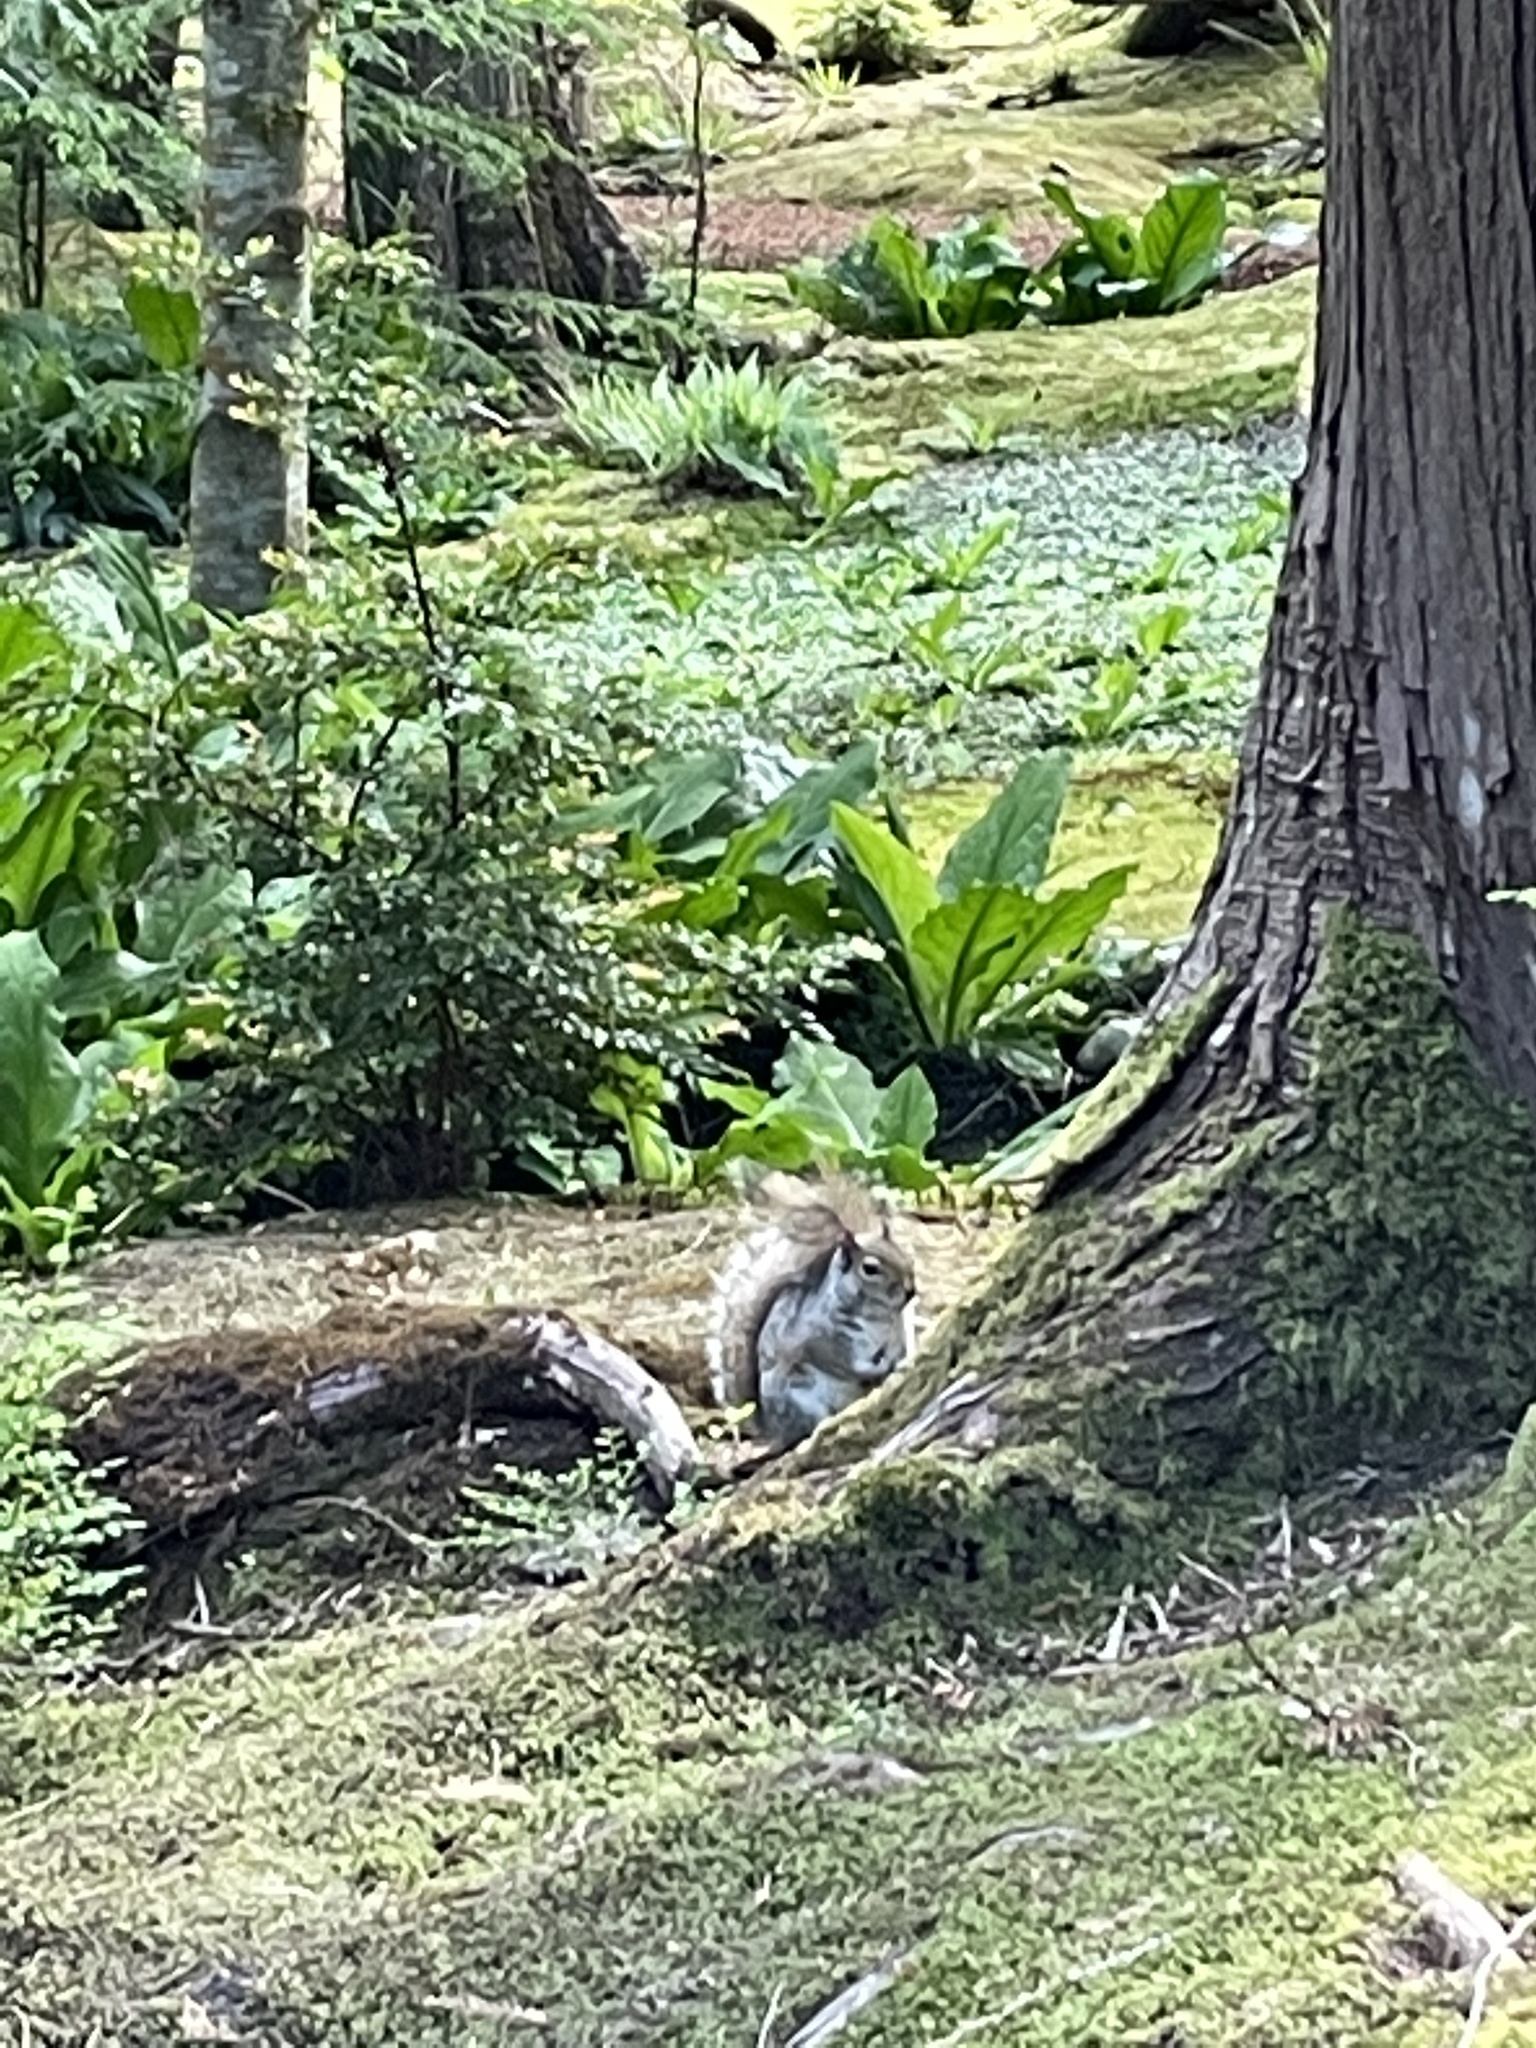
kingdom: Animalia
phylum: Chordata
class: Mammalia
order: Rodentia
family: Sciuridae
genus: Sciurus
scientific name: Sciurus carolinensis
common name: Eastern gray squirrel
